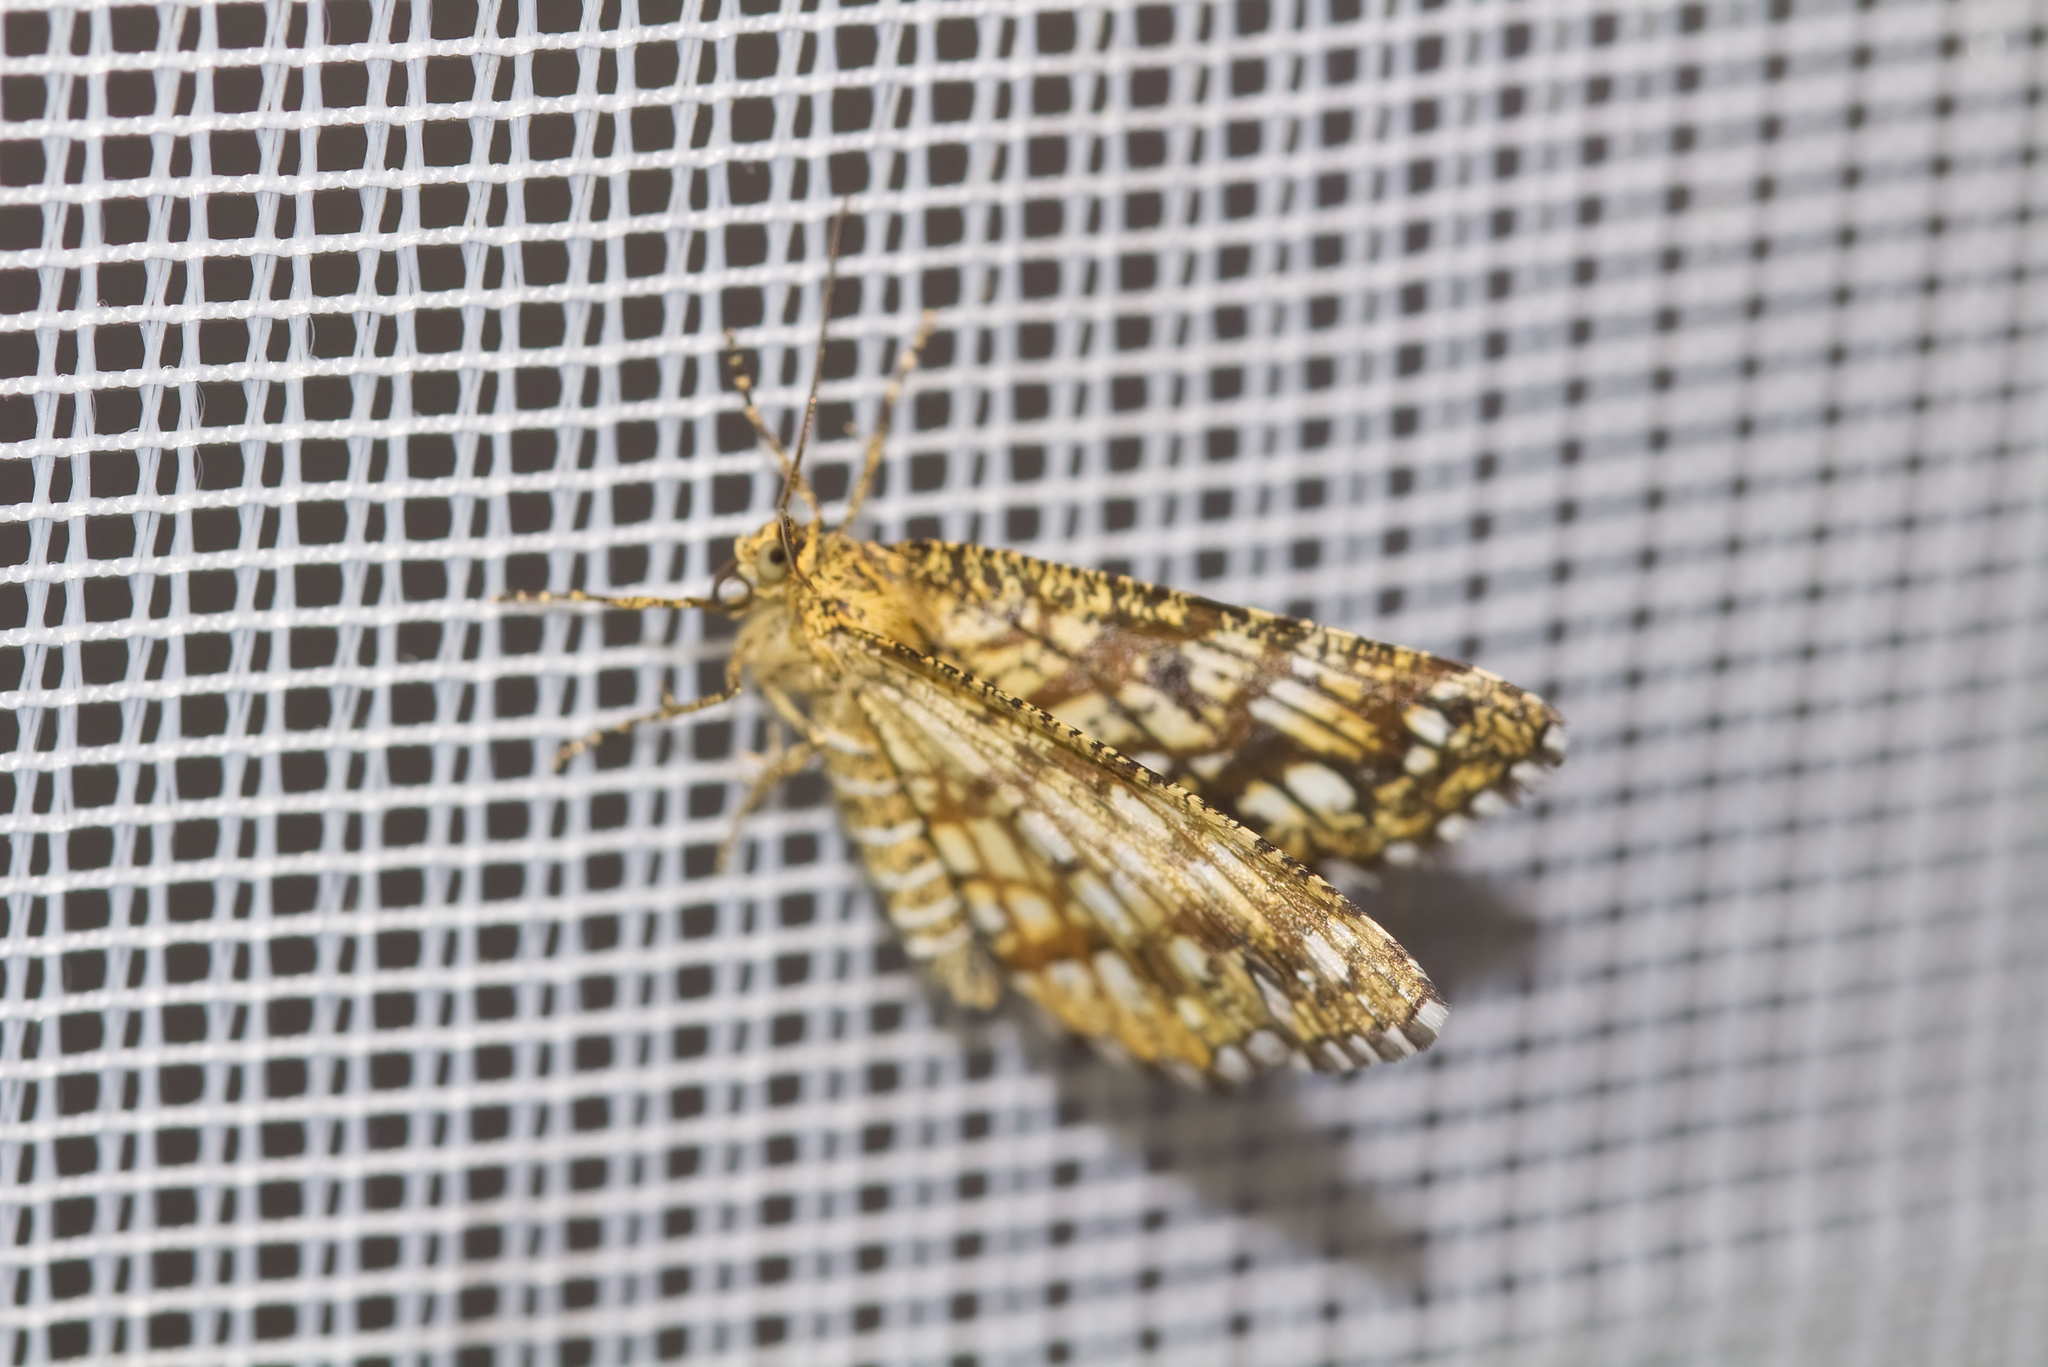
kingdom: Animalia
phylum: Arthropoda
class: Insecta
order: Lepidoptera
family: Geometridae
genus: Chiasmia
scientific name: Chiasmia clathrata
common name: Latticed heath
